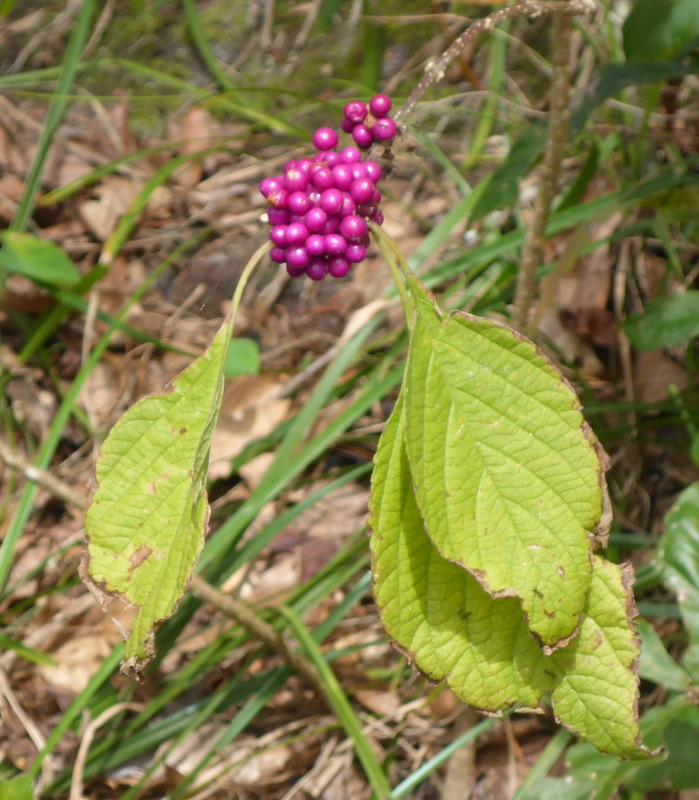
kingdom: Plantae
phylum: Tracheophyta
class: Magnoliopsida
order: Lamiales
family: Lamiaceae
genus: Callicarpa
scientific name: Callicarpa americana
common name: American beautyberry
